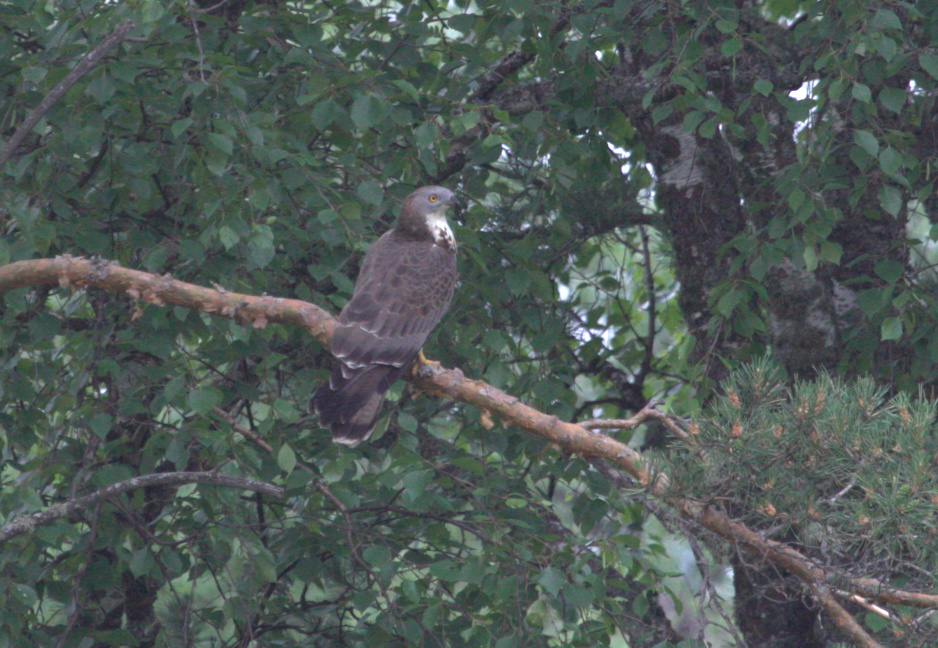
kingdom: Animalia
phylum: Chordata
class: Aves
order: Accipitriformes
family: Accipitridae
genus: Pernis
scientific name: Pernis apivorus
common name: European honey buzzard
